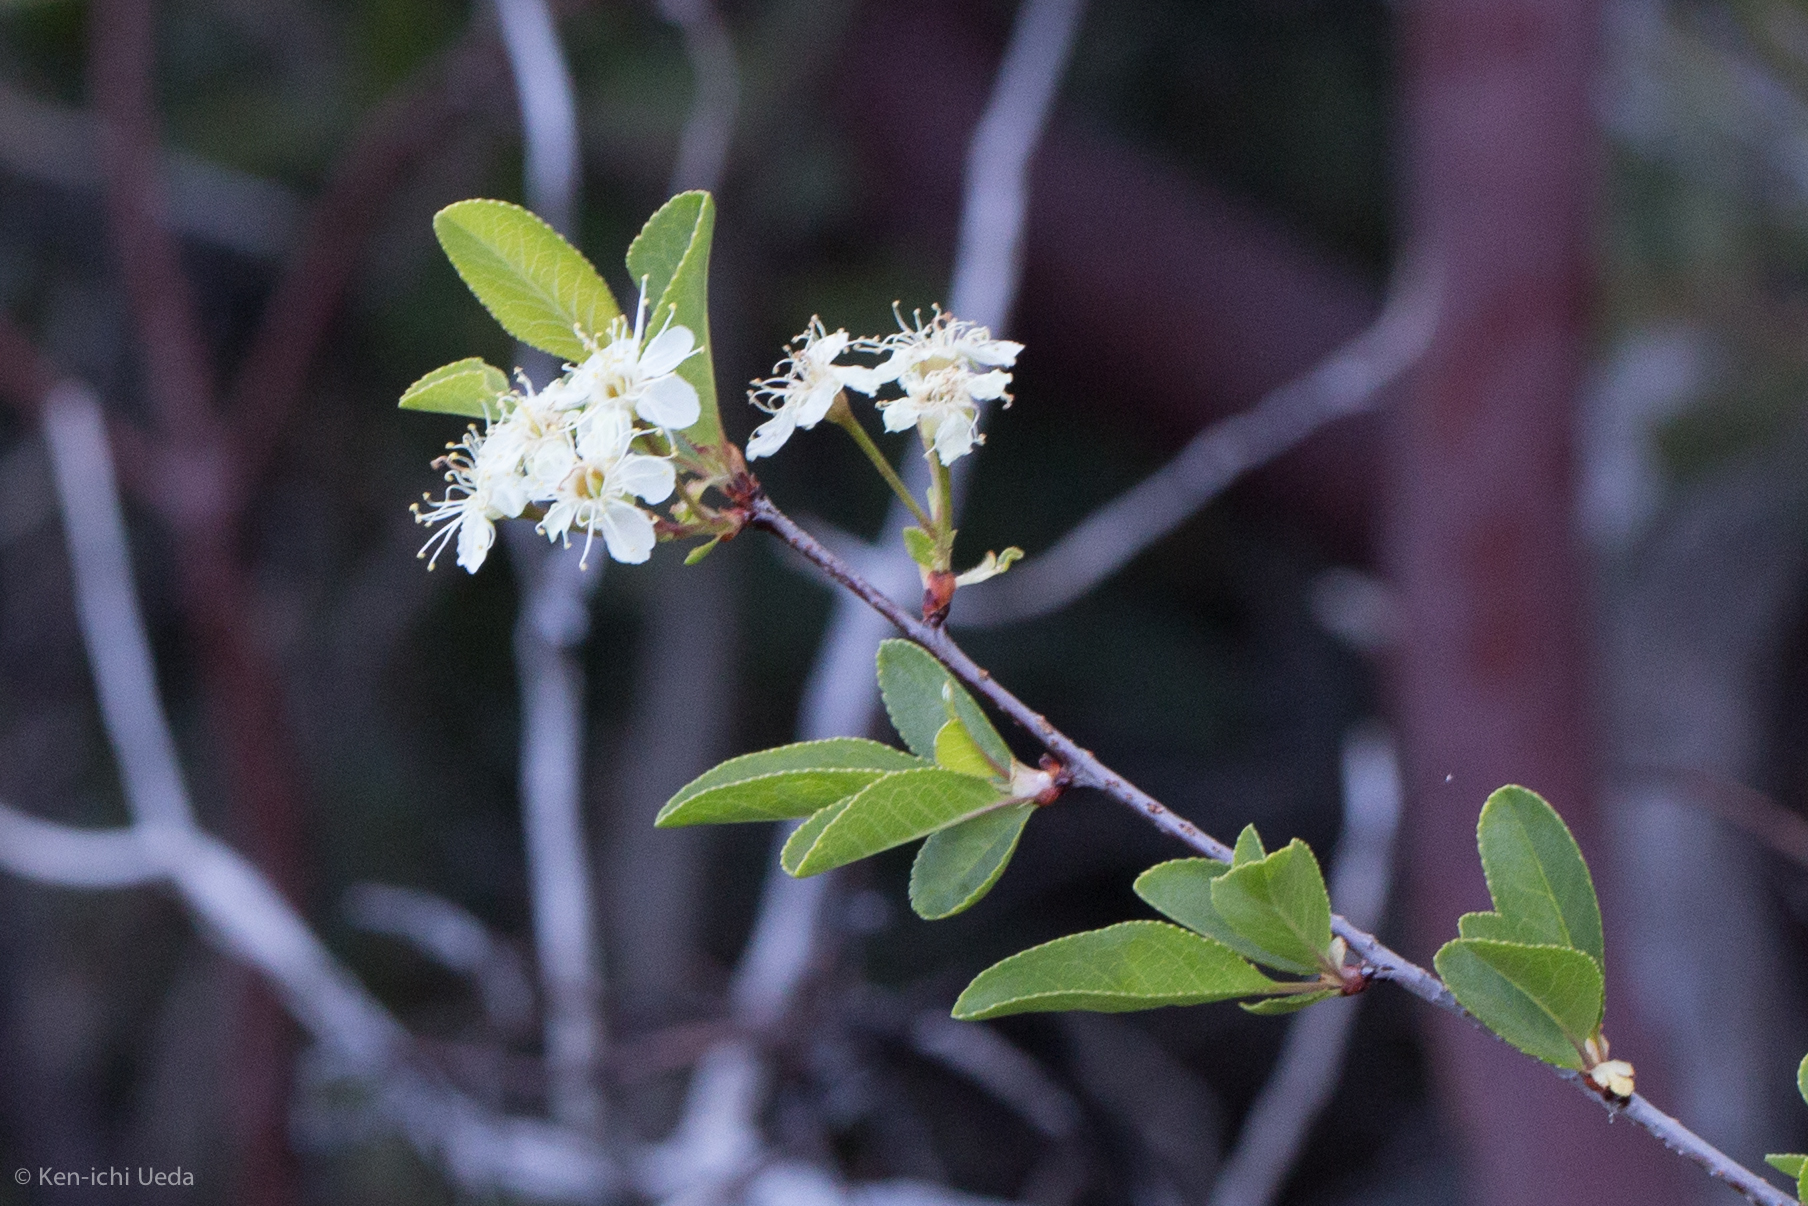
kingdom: Plantae
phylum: Tracheophyta
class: Magnoliopsida
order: Rosales
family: Rosaceae
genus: Prunus
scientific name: Prunus emarginata
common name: Bitter cherry
